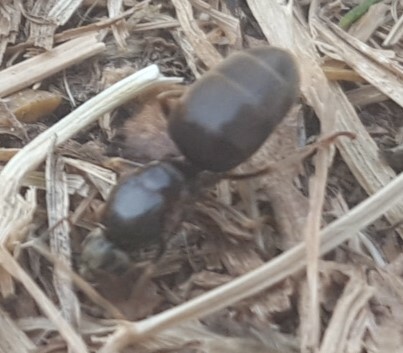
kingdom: Animalia
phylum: Arthropoda
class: Insecta
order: Hymenoptera
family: Formicidae
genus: Lasius
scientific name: Lasius
